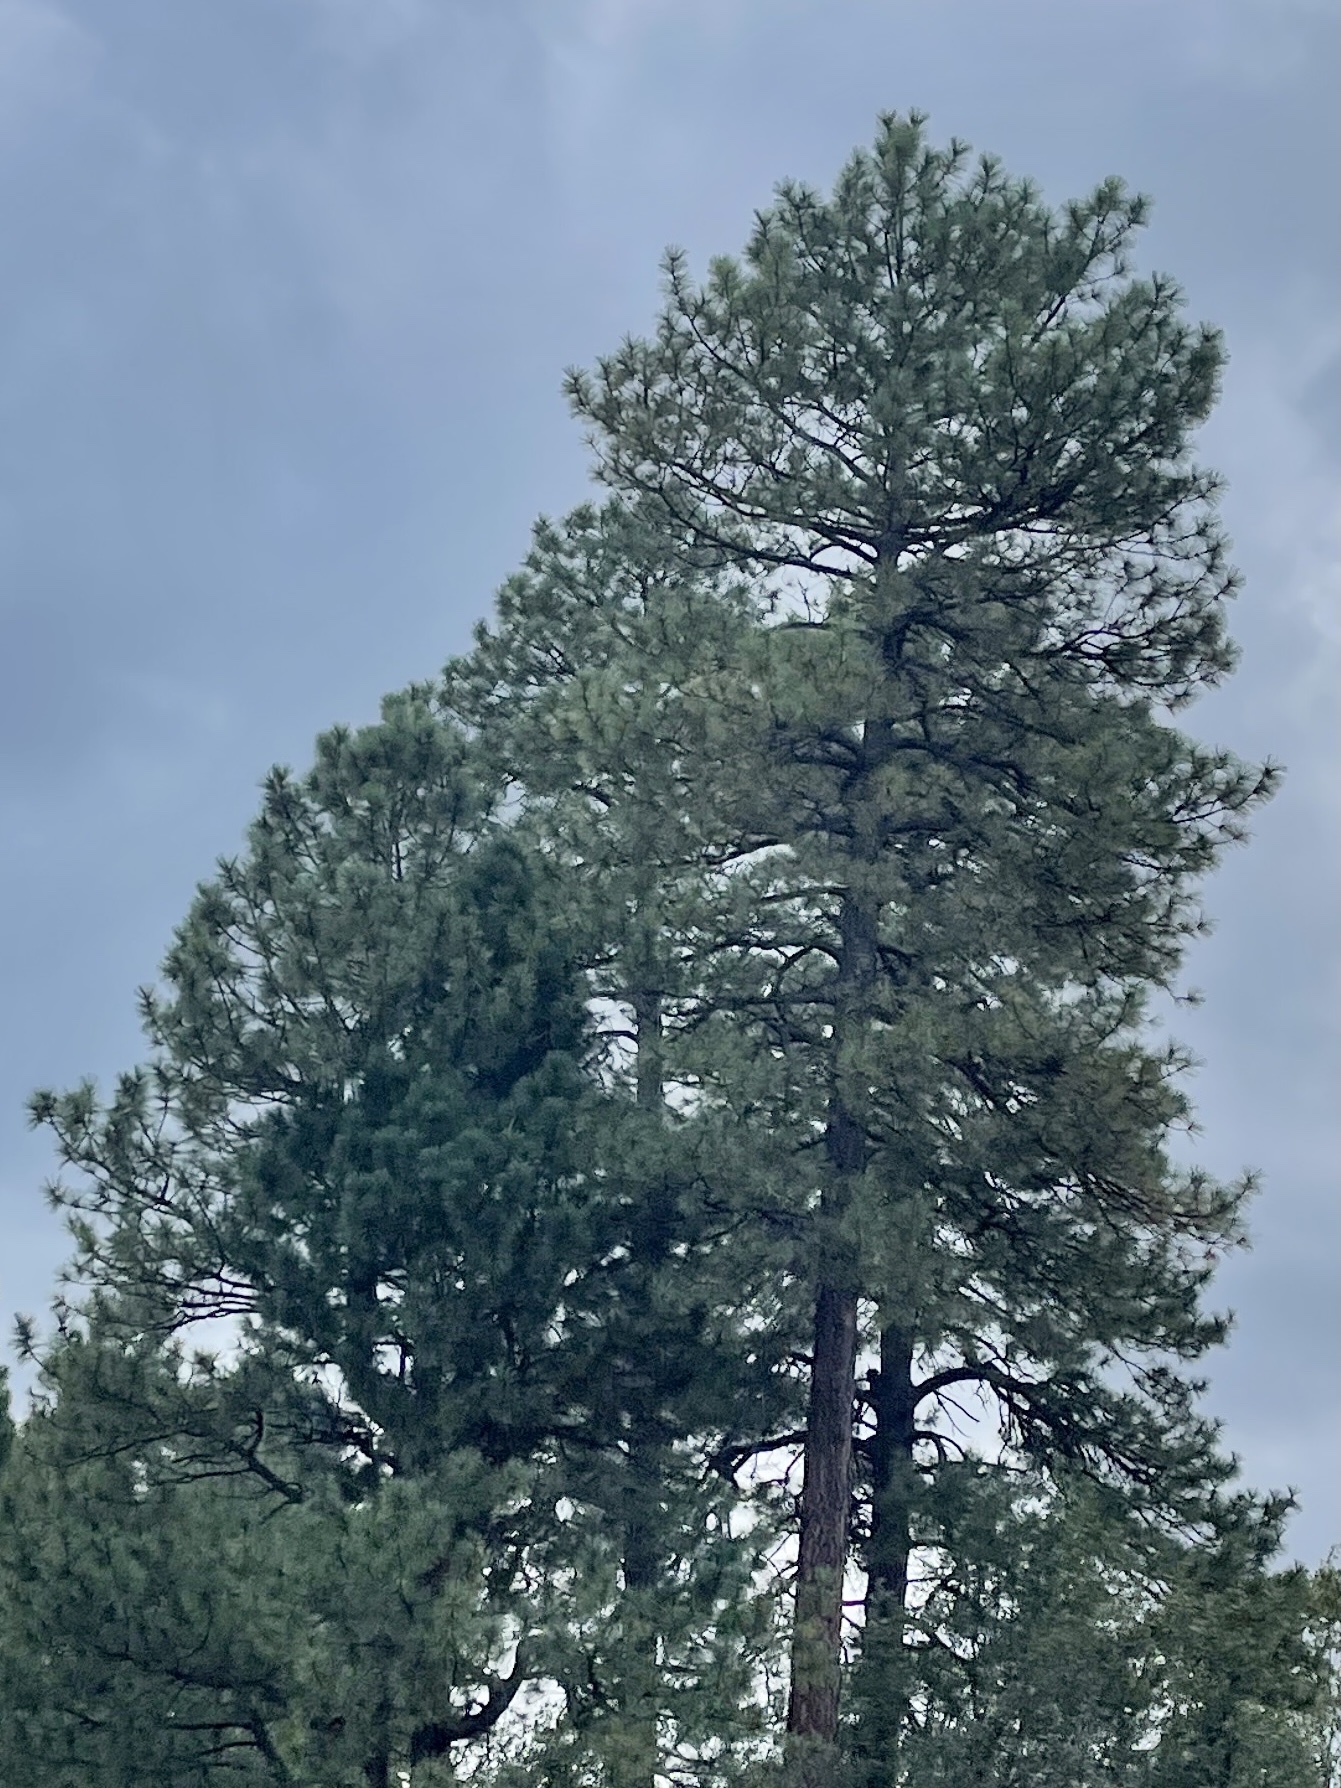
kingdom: Plantae
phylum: Tracheophyta
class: Pinopsida
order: Pinales
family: Pinaceae
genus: Pinus
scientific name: Pinus ponderosa
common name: Western yellow-pine
